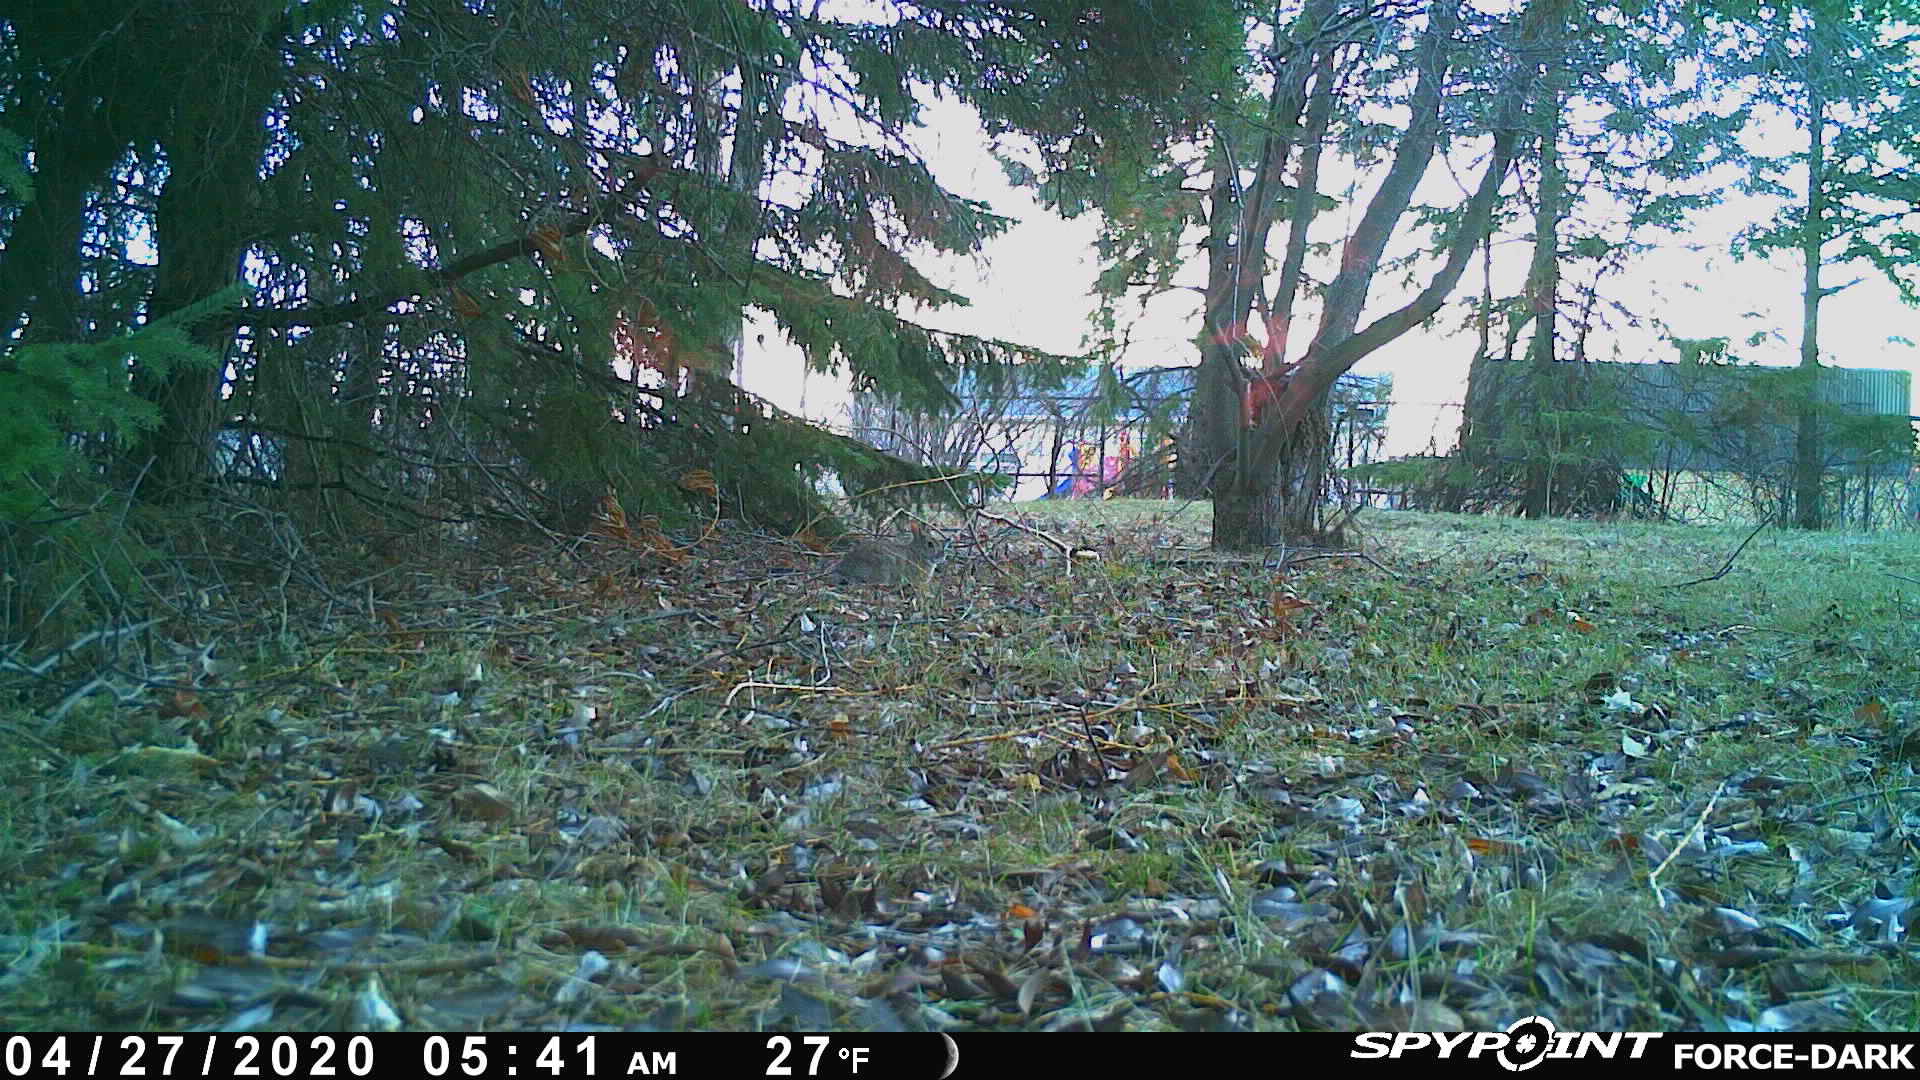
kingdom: Animalia
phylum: Chordata
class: Mammalia
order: Lagomorpha
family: Leporidae
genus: Sylvilagus
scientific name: Sylvilagus floridanus
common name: Eastern cottontail
